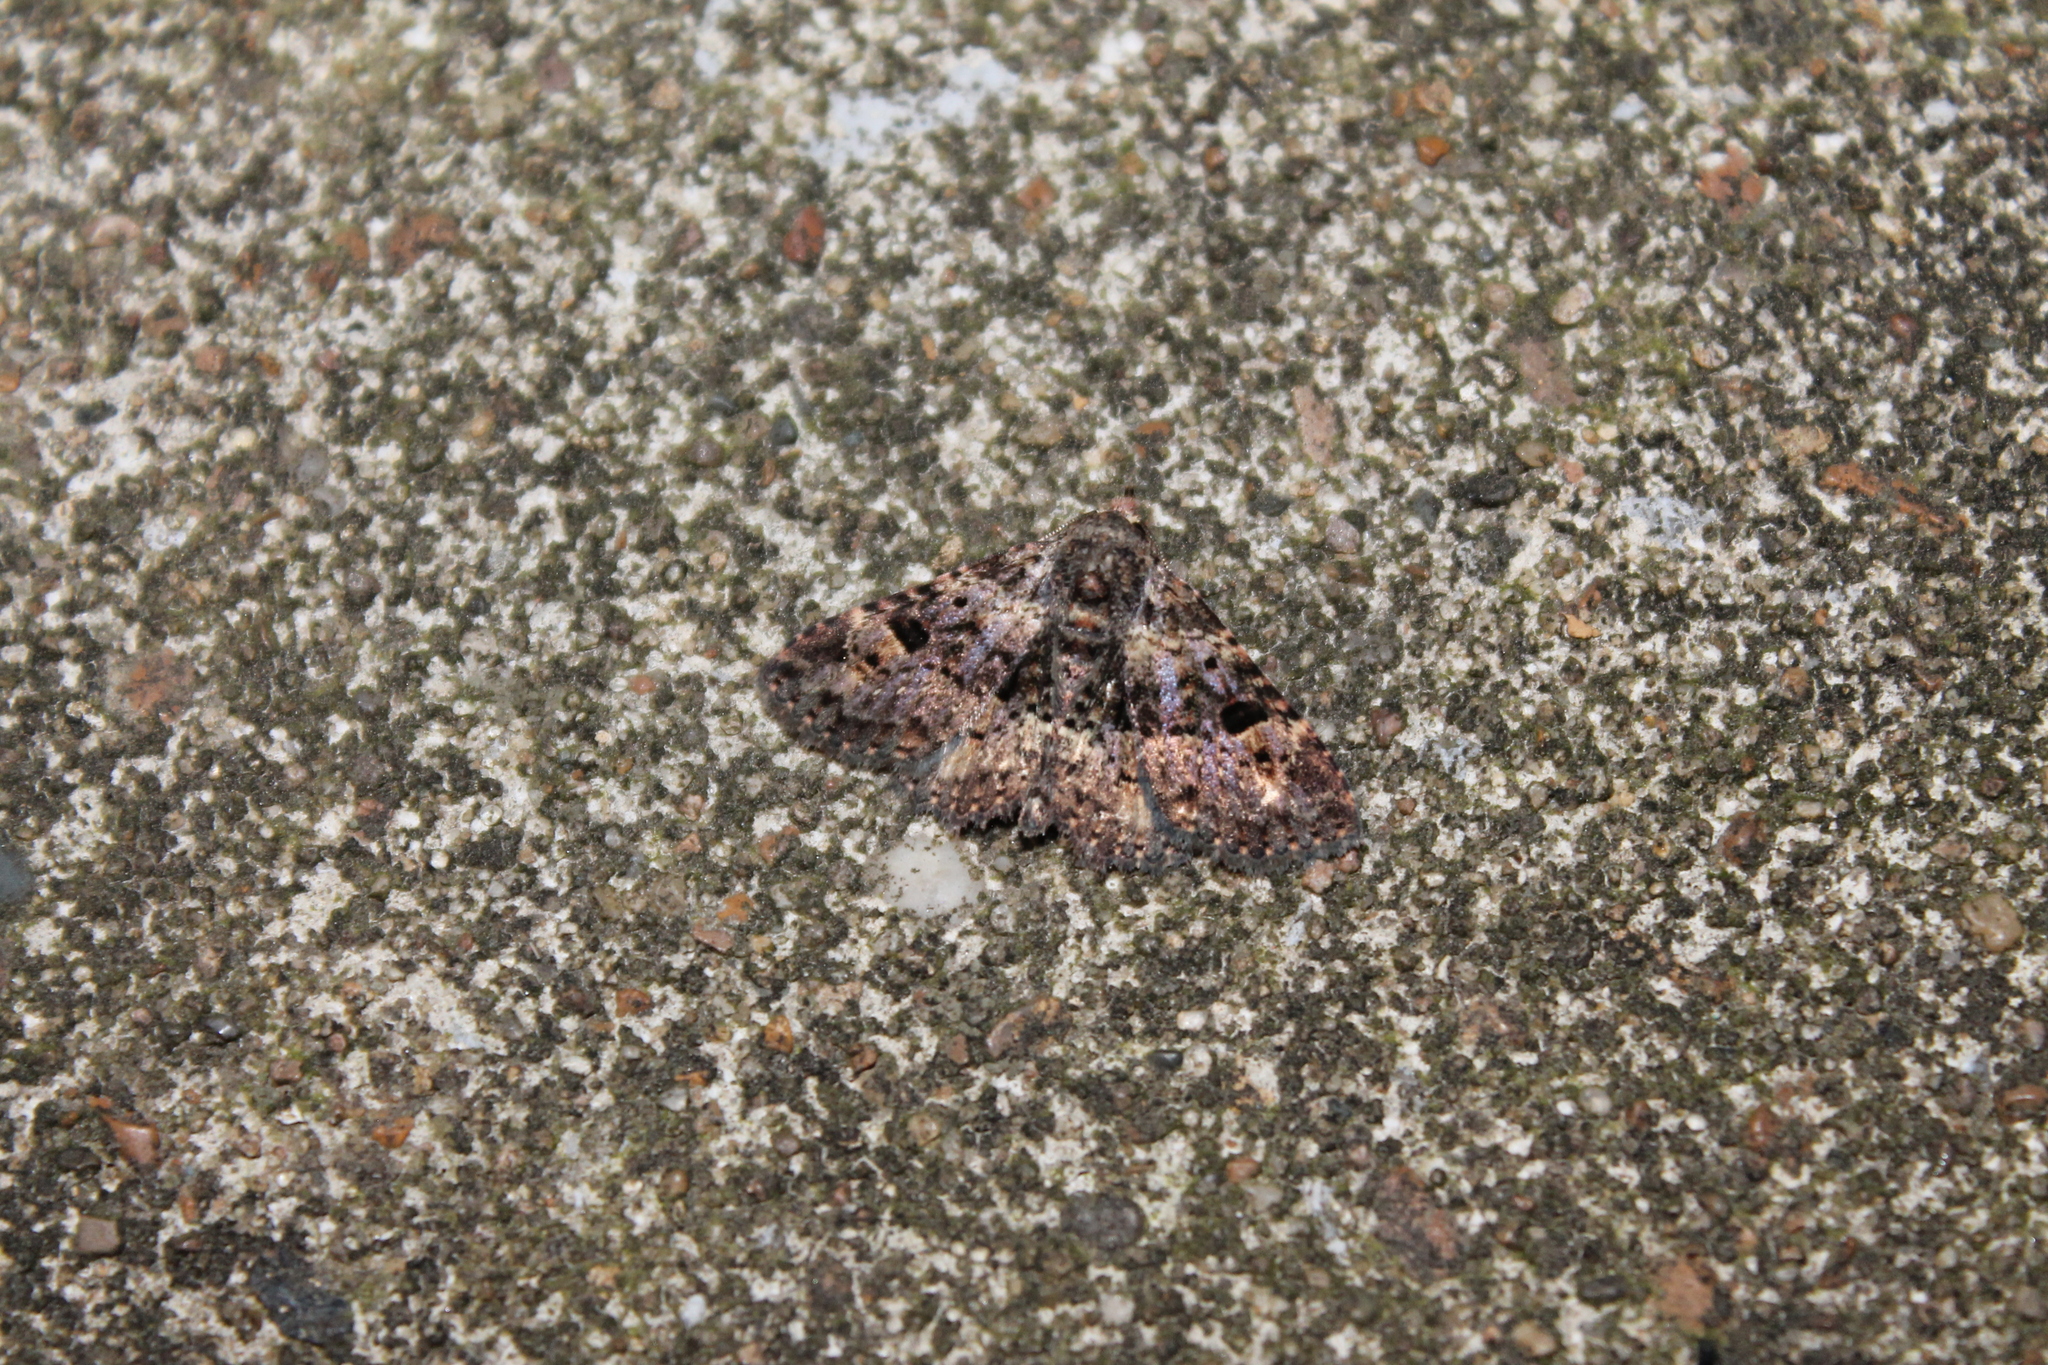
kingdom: Animalia
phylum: Arthropoda
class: Insecta
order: Lepidoptera
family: Erebidae
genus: Metalectra
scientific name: Metalectra discalis
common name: Common fungus moth
